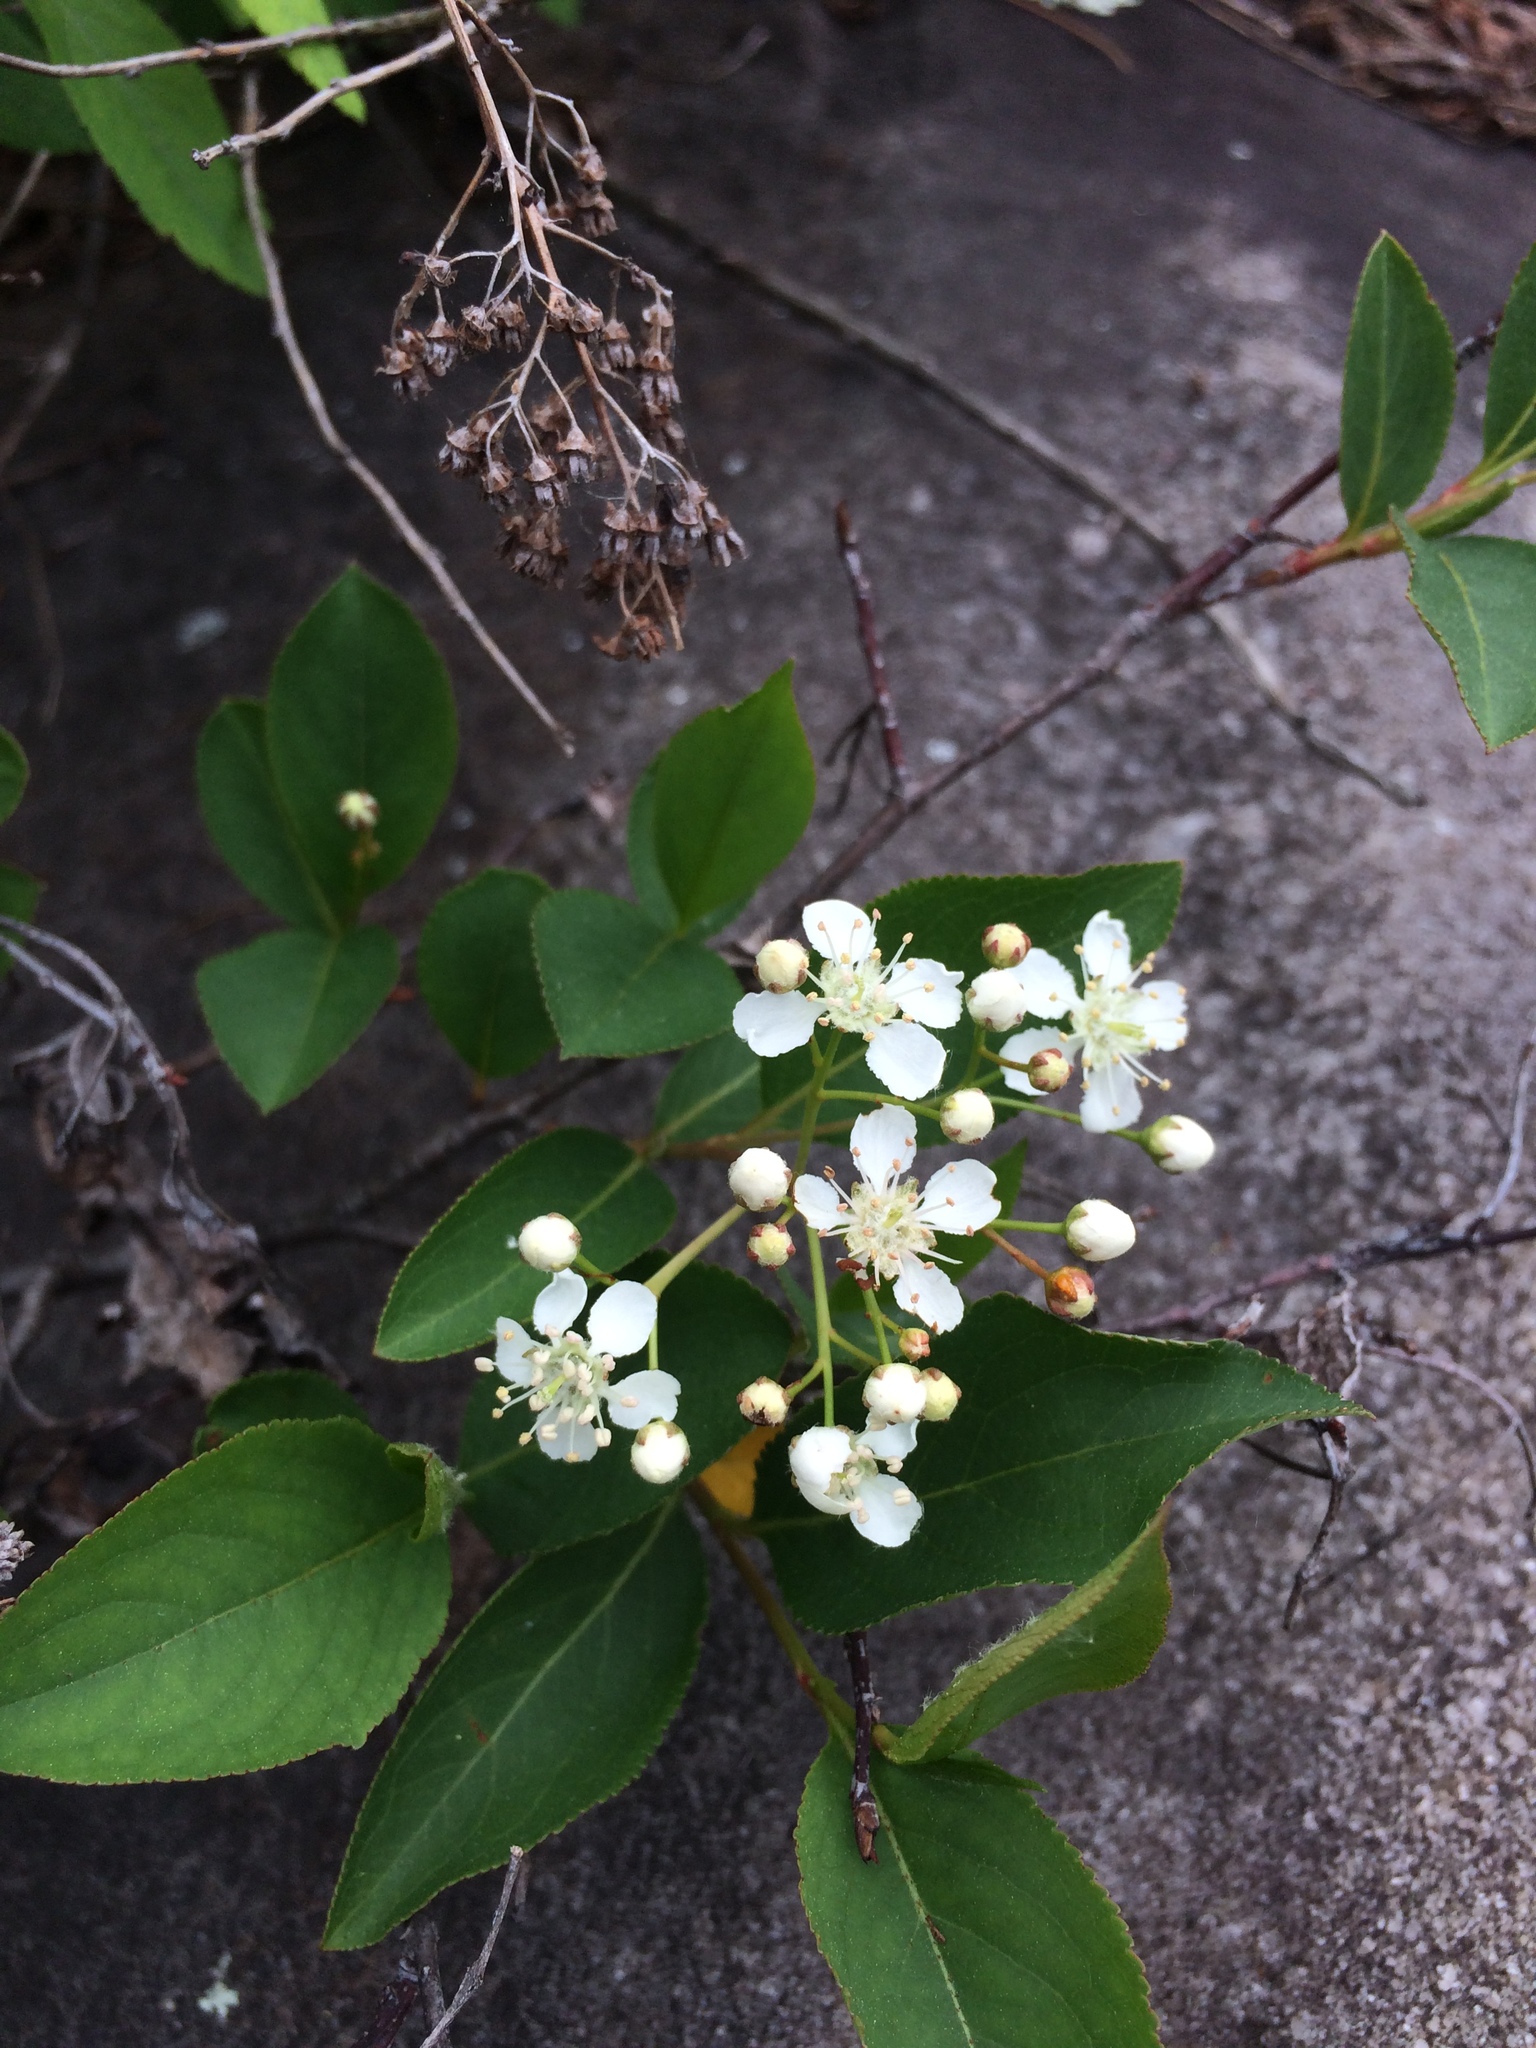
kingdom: Plantae
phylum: Tracheophyta
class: Magnoliopsida
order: Rosales
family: Rosaceae
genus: Aronia
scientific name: Aronia melanocarpa
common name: Black chokeberry
